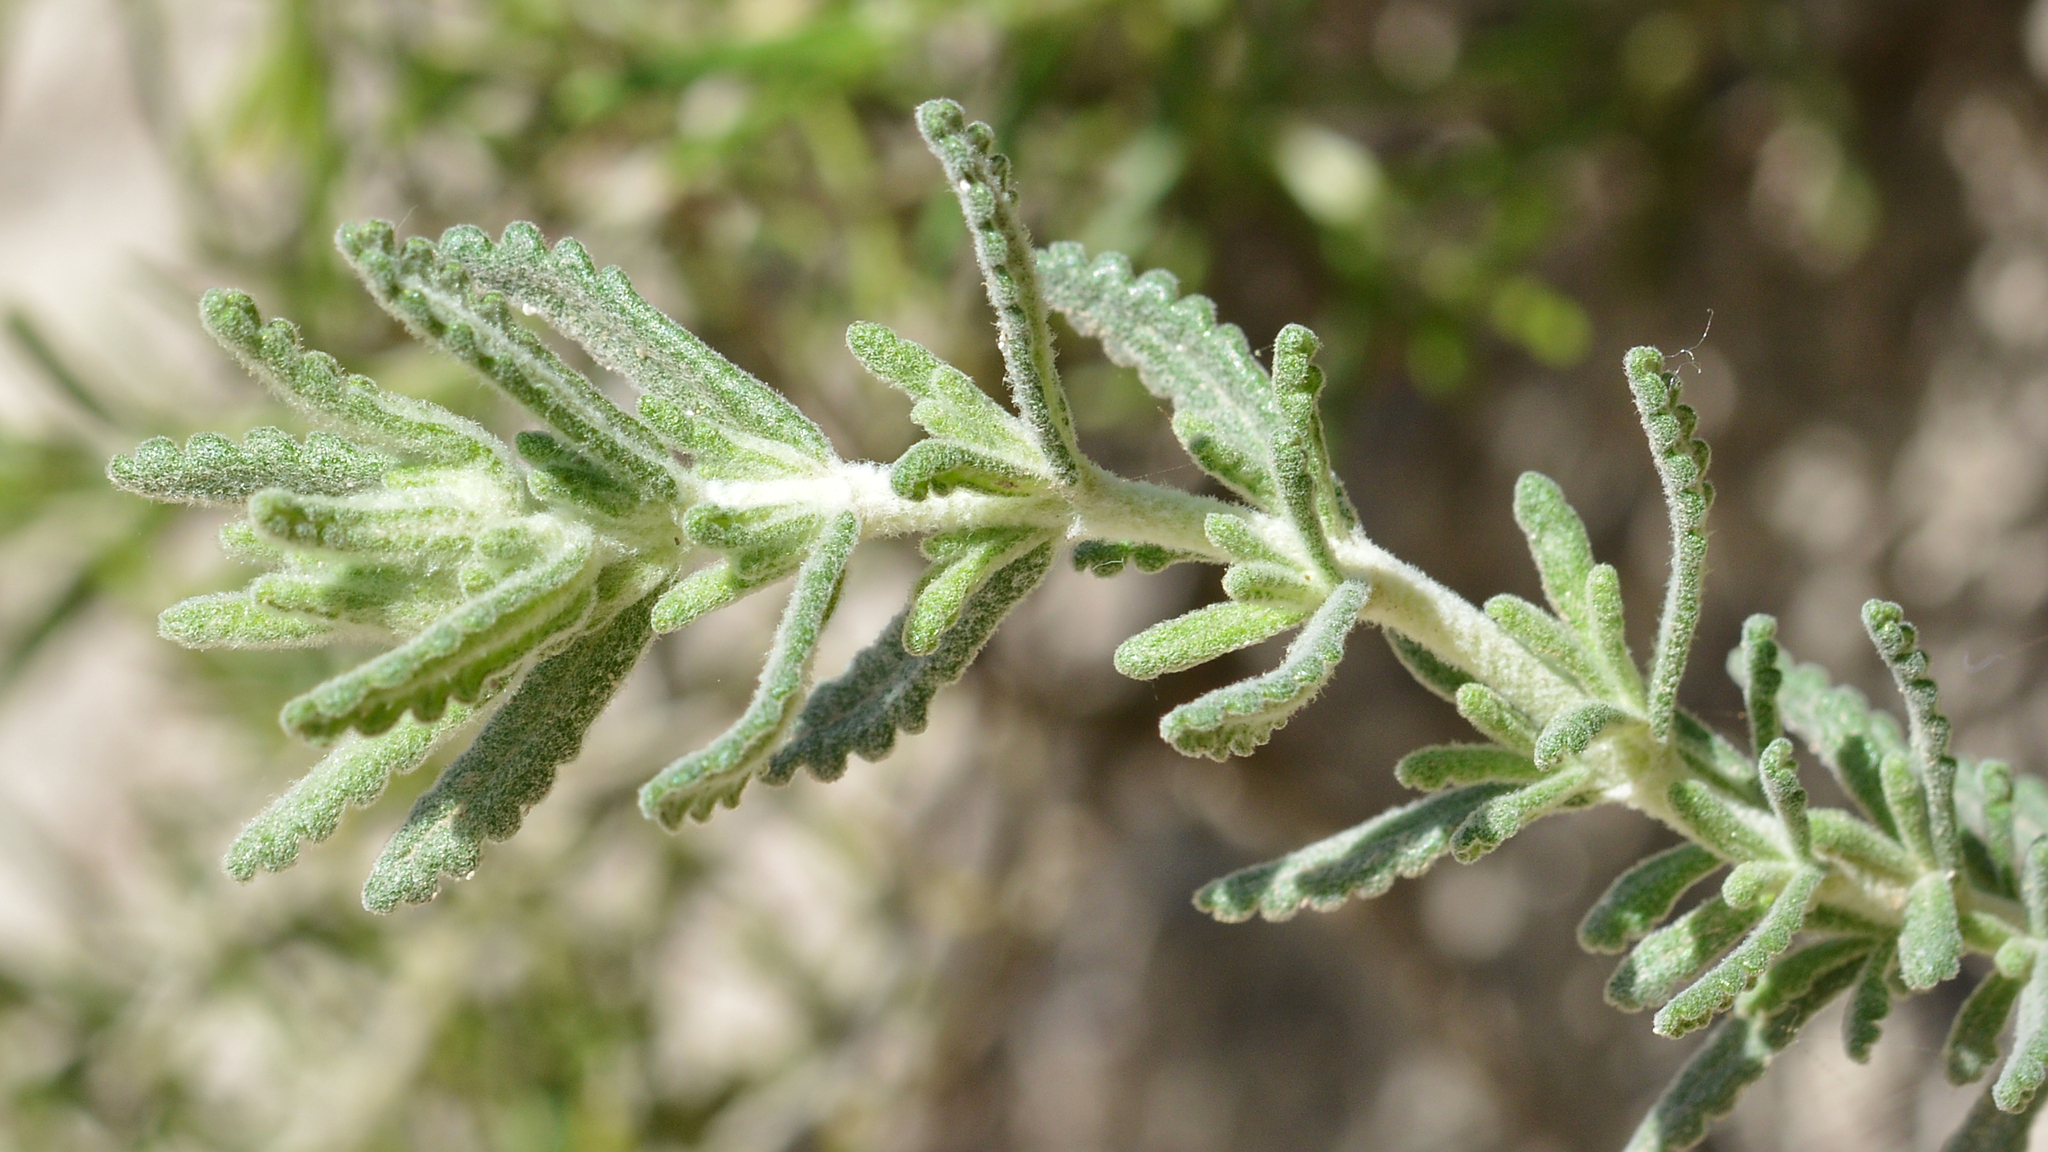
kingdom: Plantae
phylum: Tracheophyta
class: Magnoliopsida
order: Lamiales
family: Lamiaceae
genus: Teucrium
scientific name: Teucrium dunense
